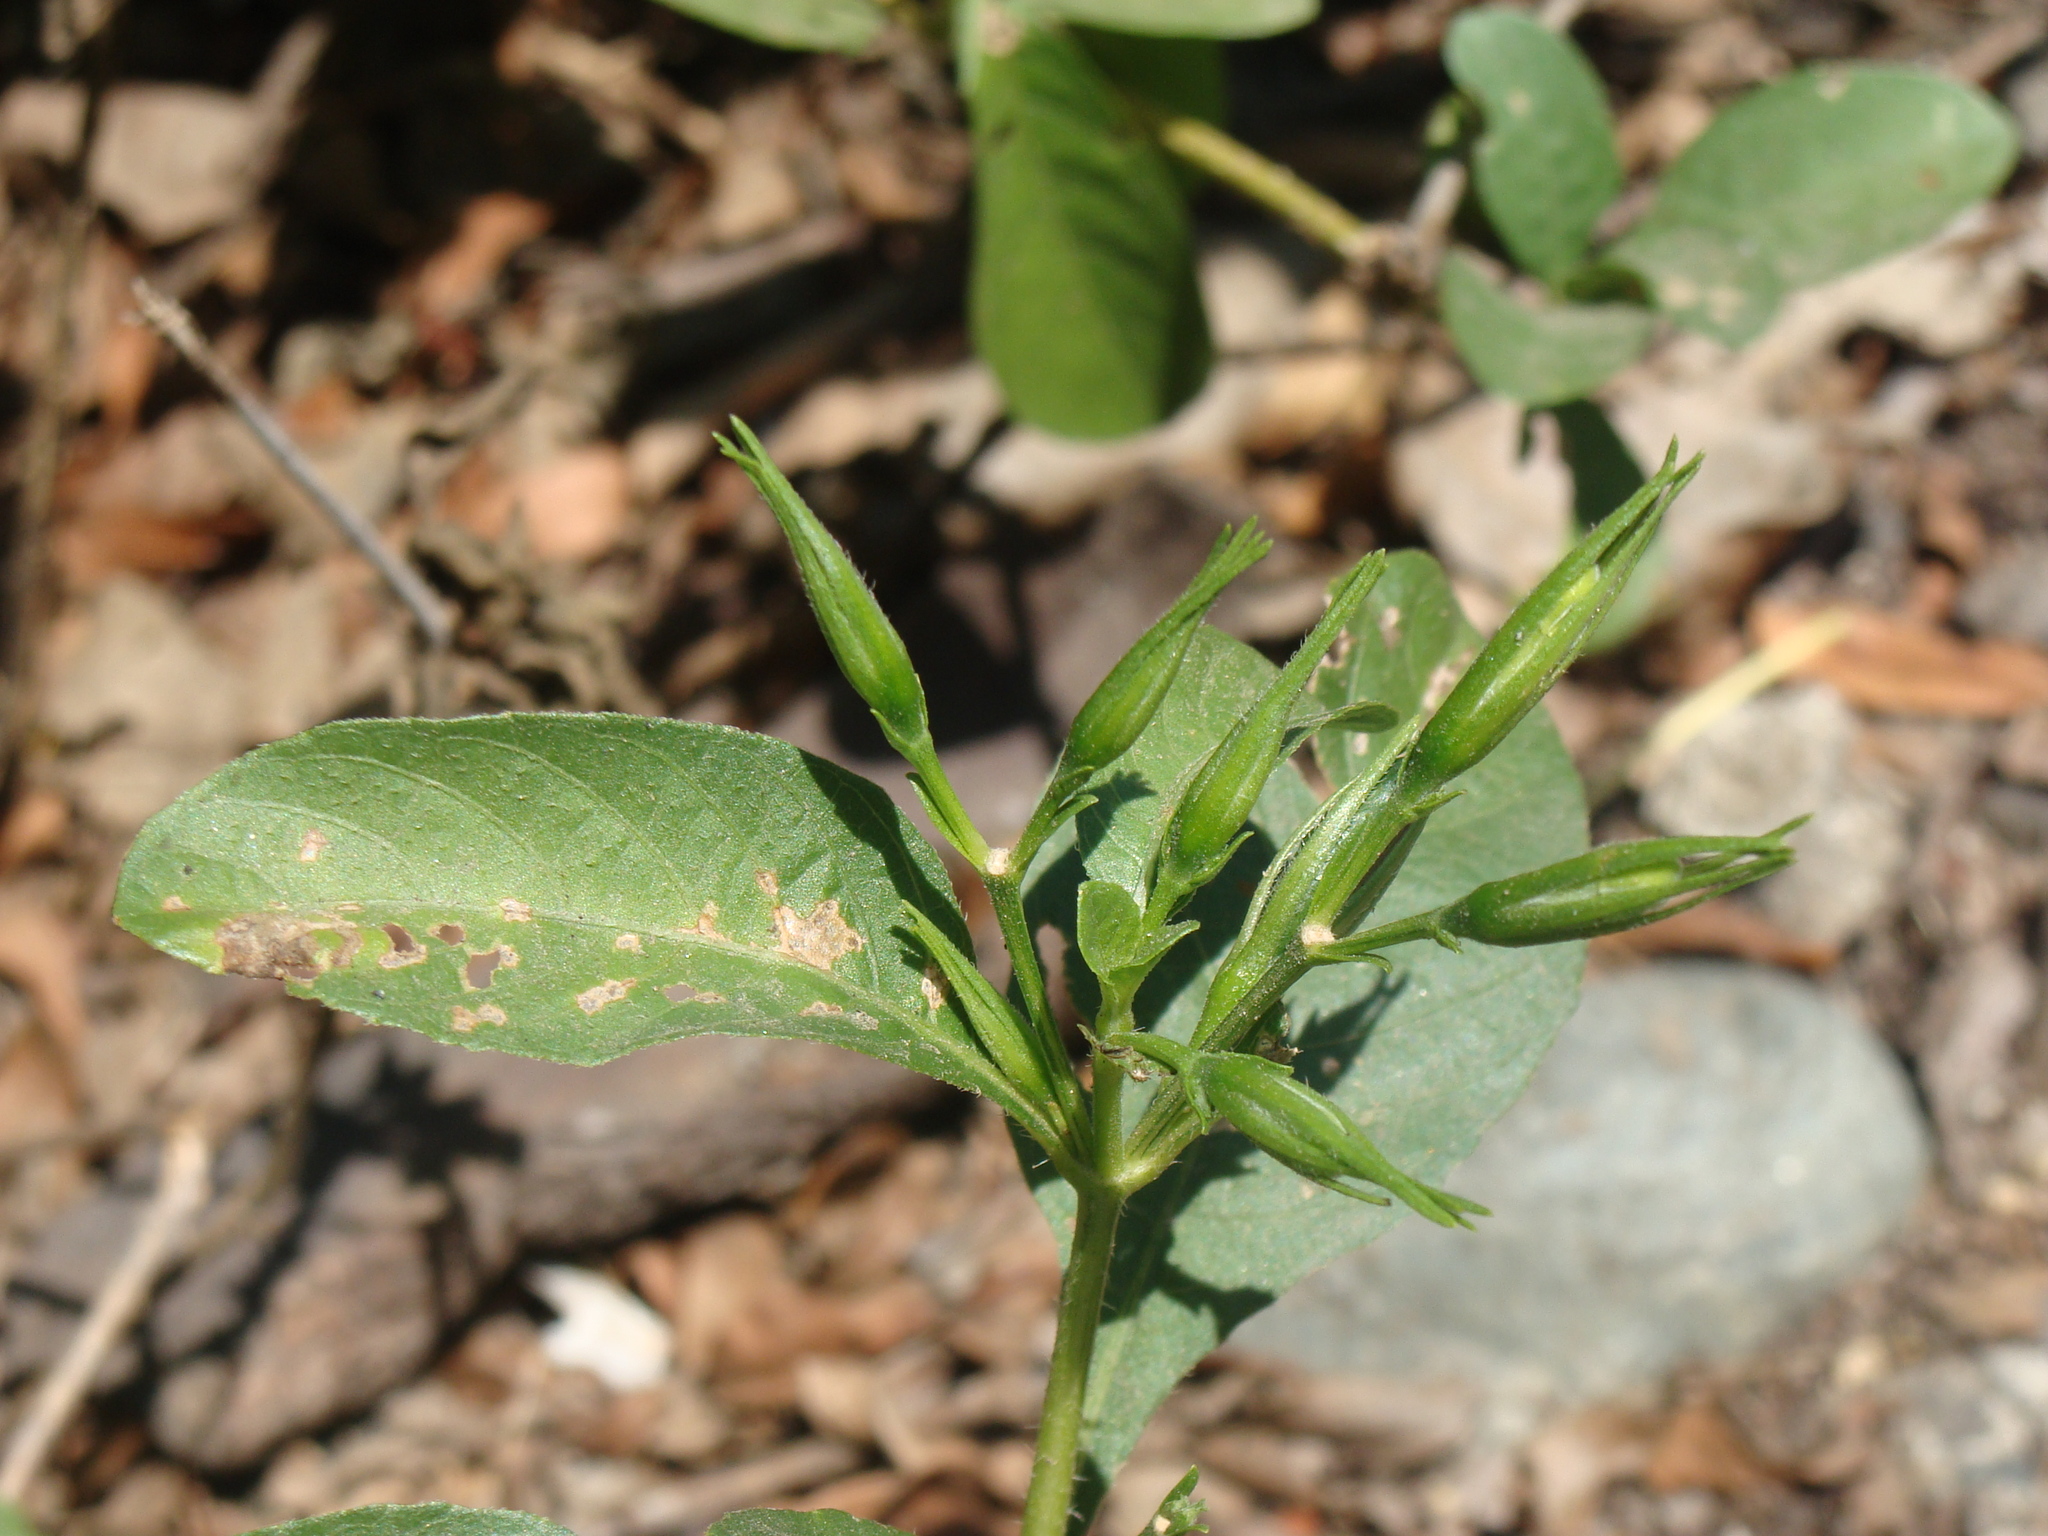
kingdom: Plantae
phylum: Tracheophyta
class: Magnoliopsida
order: Lamiales
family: Acanthaceae
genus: Ruellia
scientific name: Ruellia ciliatiflora
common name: Hairyflower wild petunia
